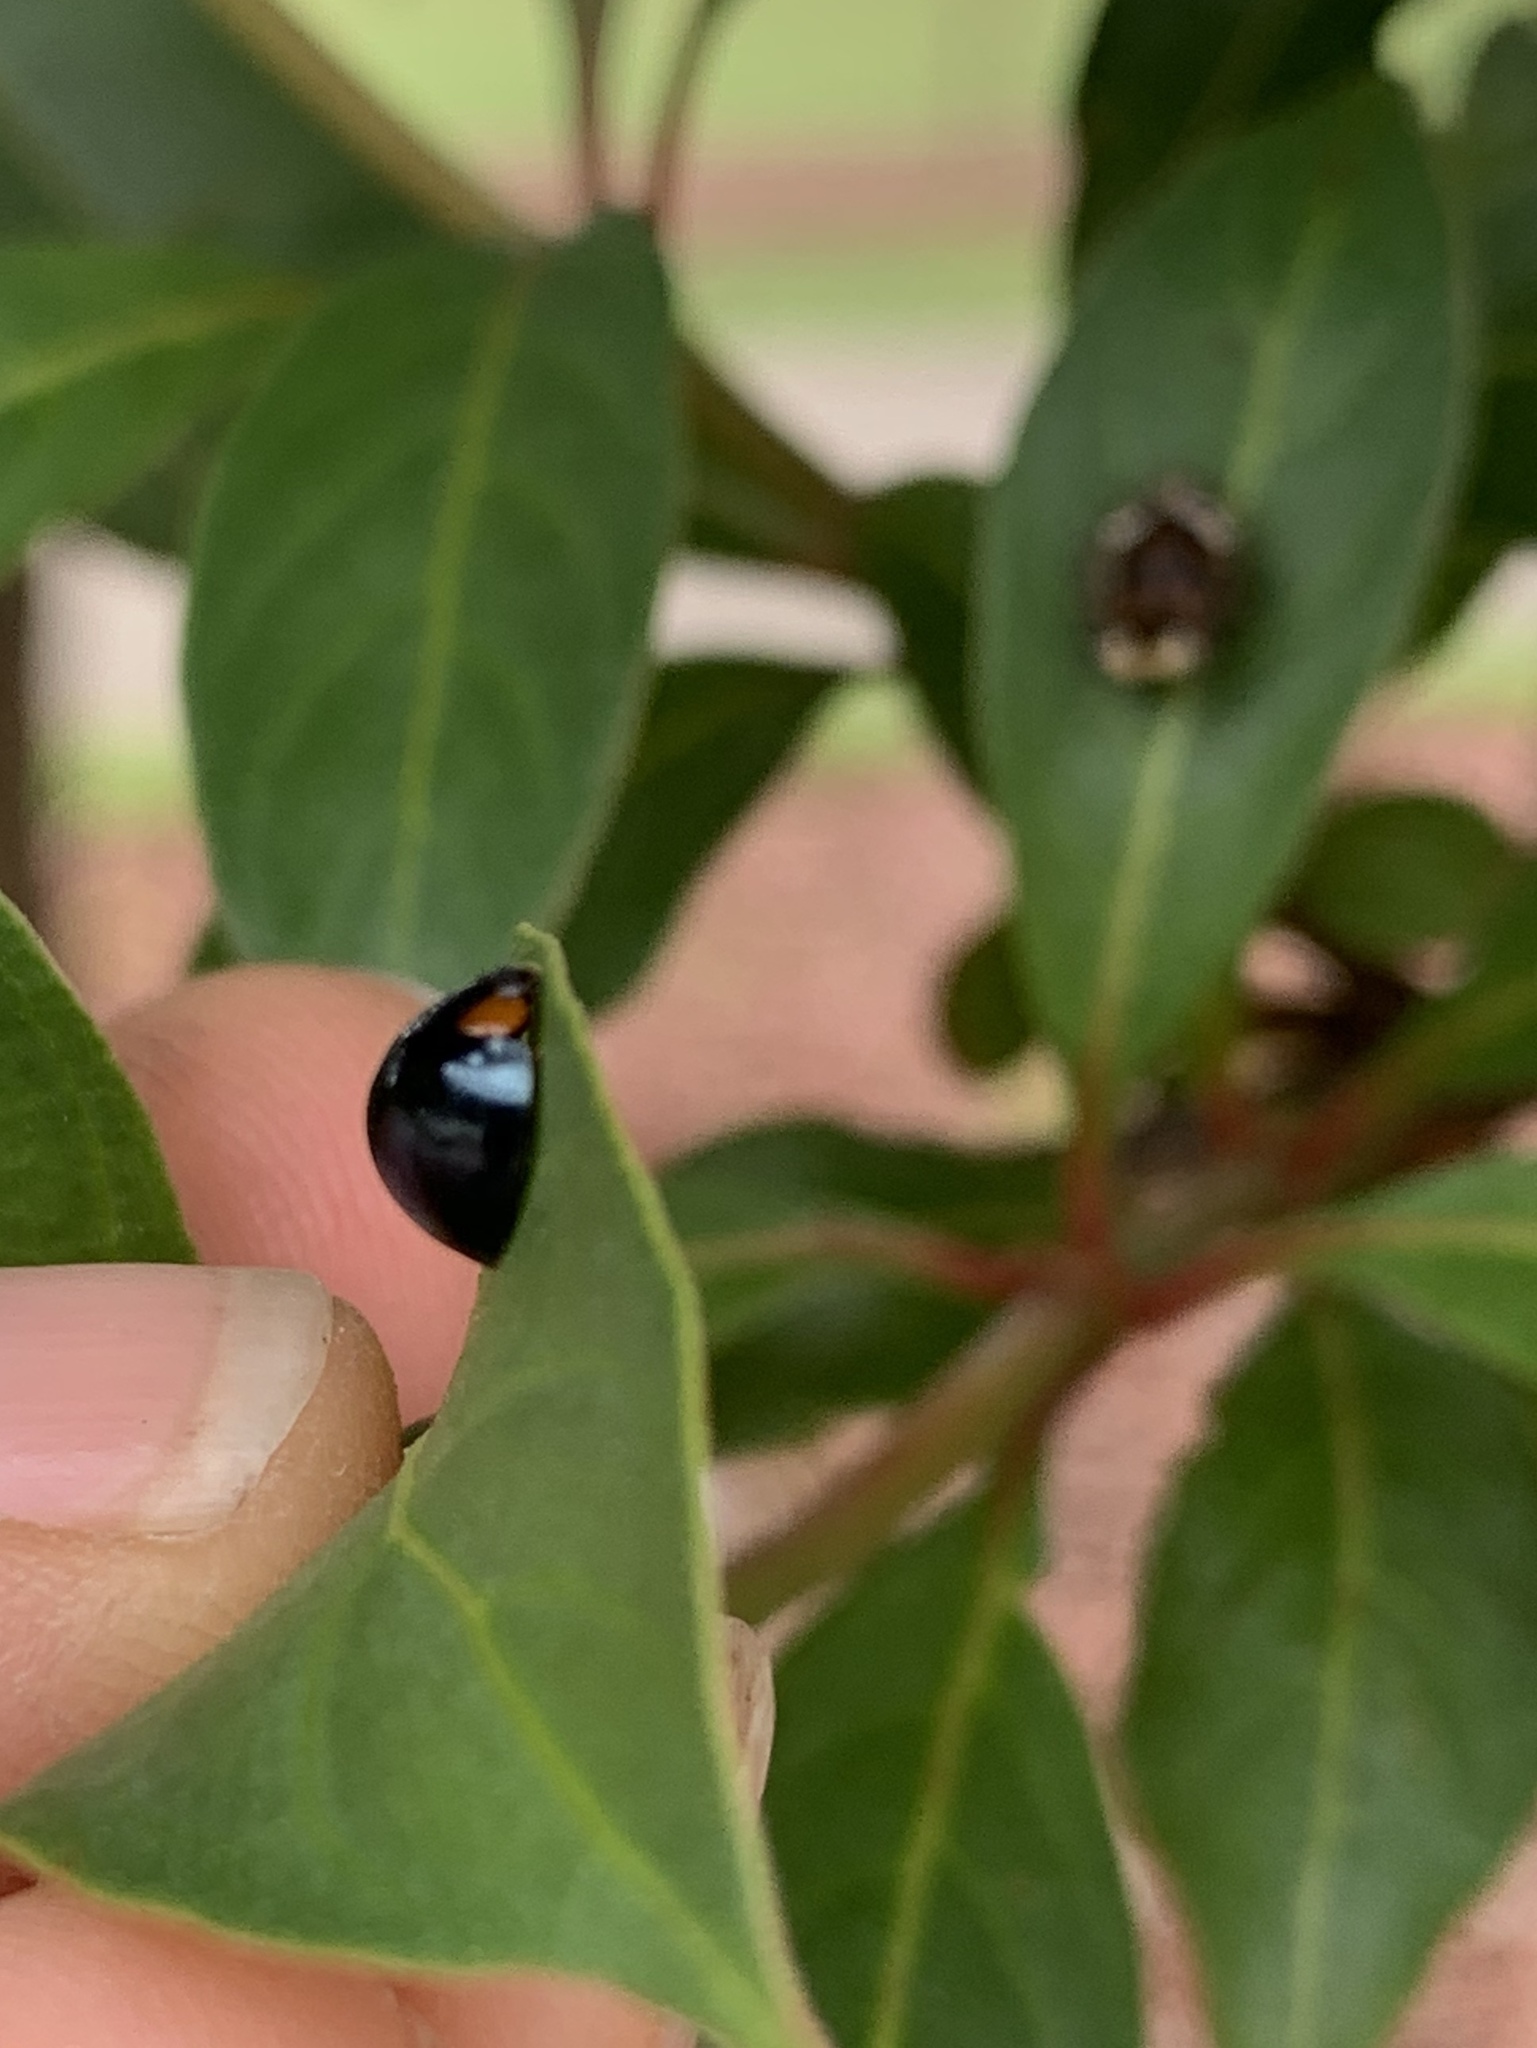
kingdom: Animalia
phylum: Arthropoda
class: Insecta
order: Coleoptera
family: Coccinellidae
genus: Curinus
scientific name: Curinus coeruleus
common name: Ladybird beetle
